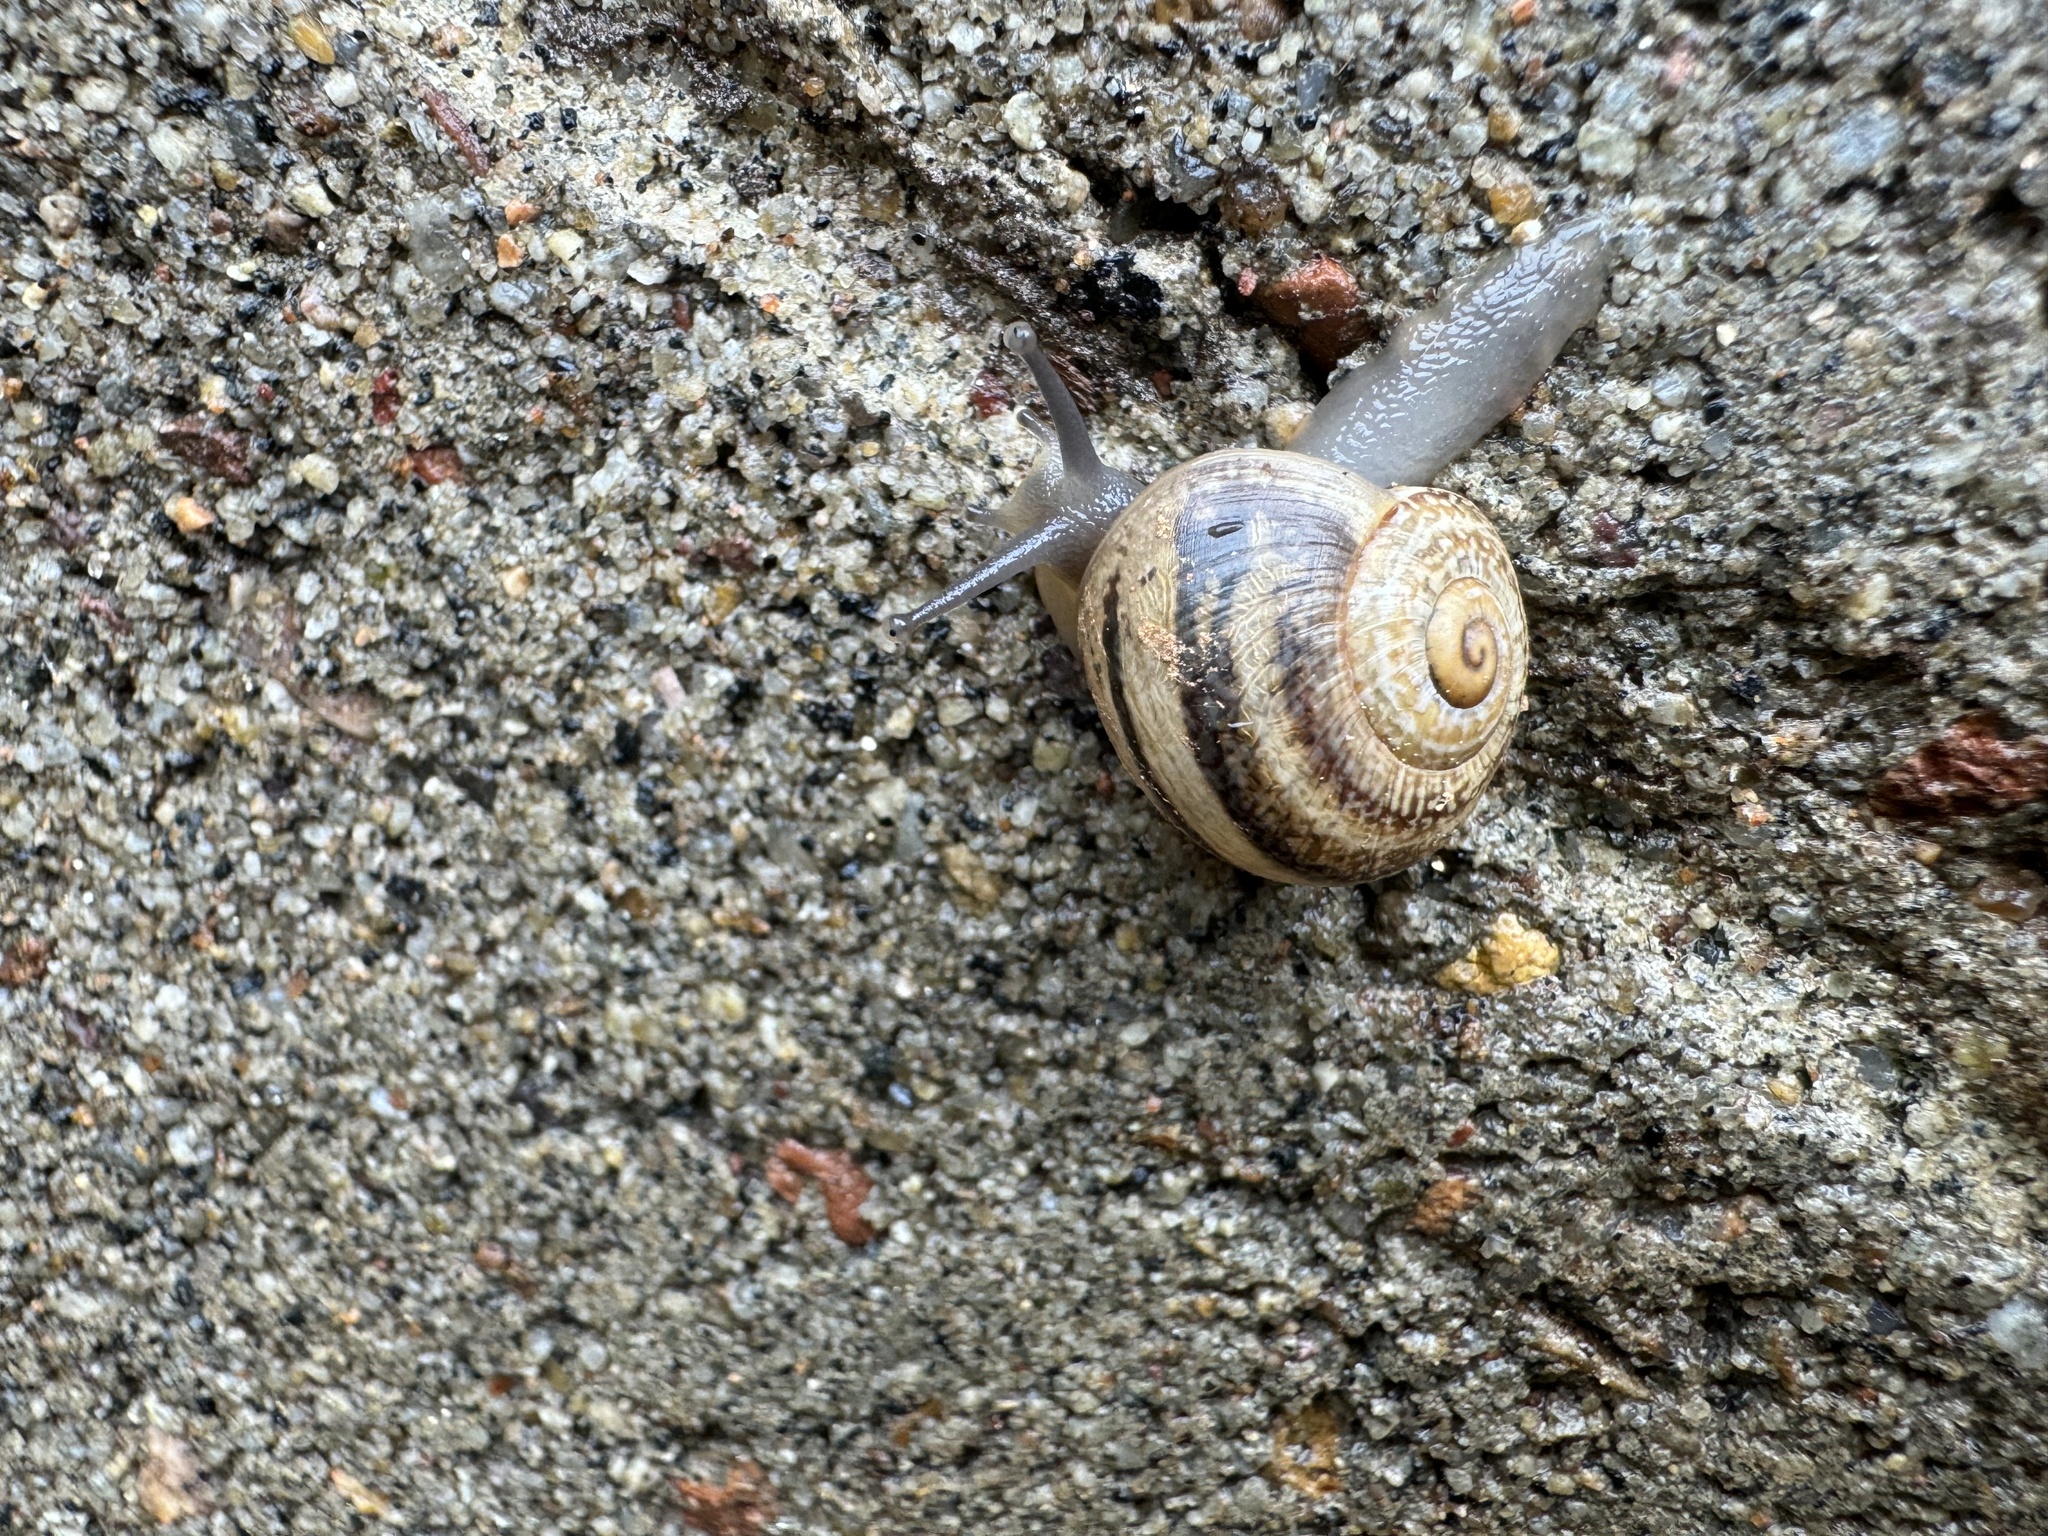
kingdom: Animalia
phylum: Mollusca
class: Gastropoda
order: Stylommatophora
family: Helicidae
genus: Otala
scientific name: Otala lactea
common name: Milk snail
